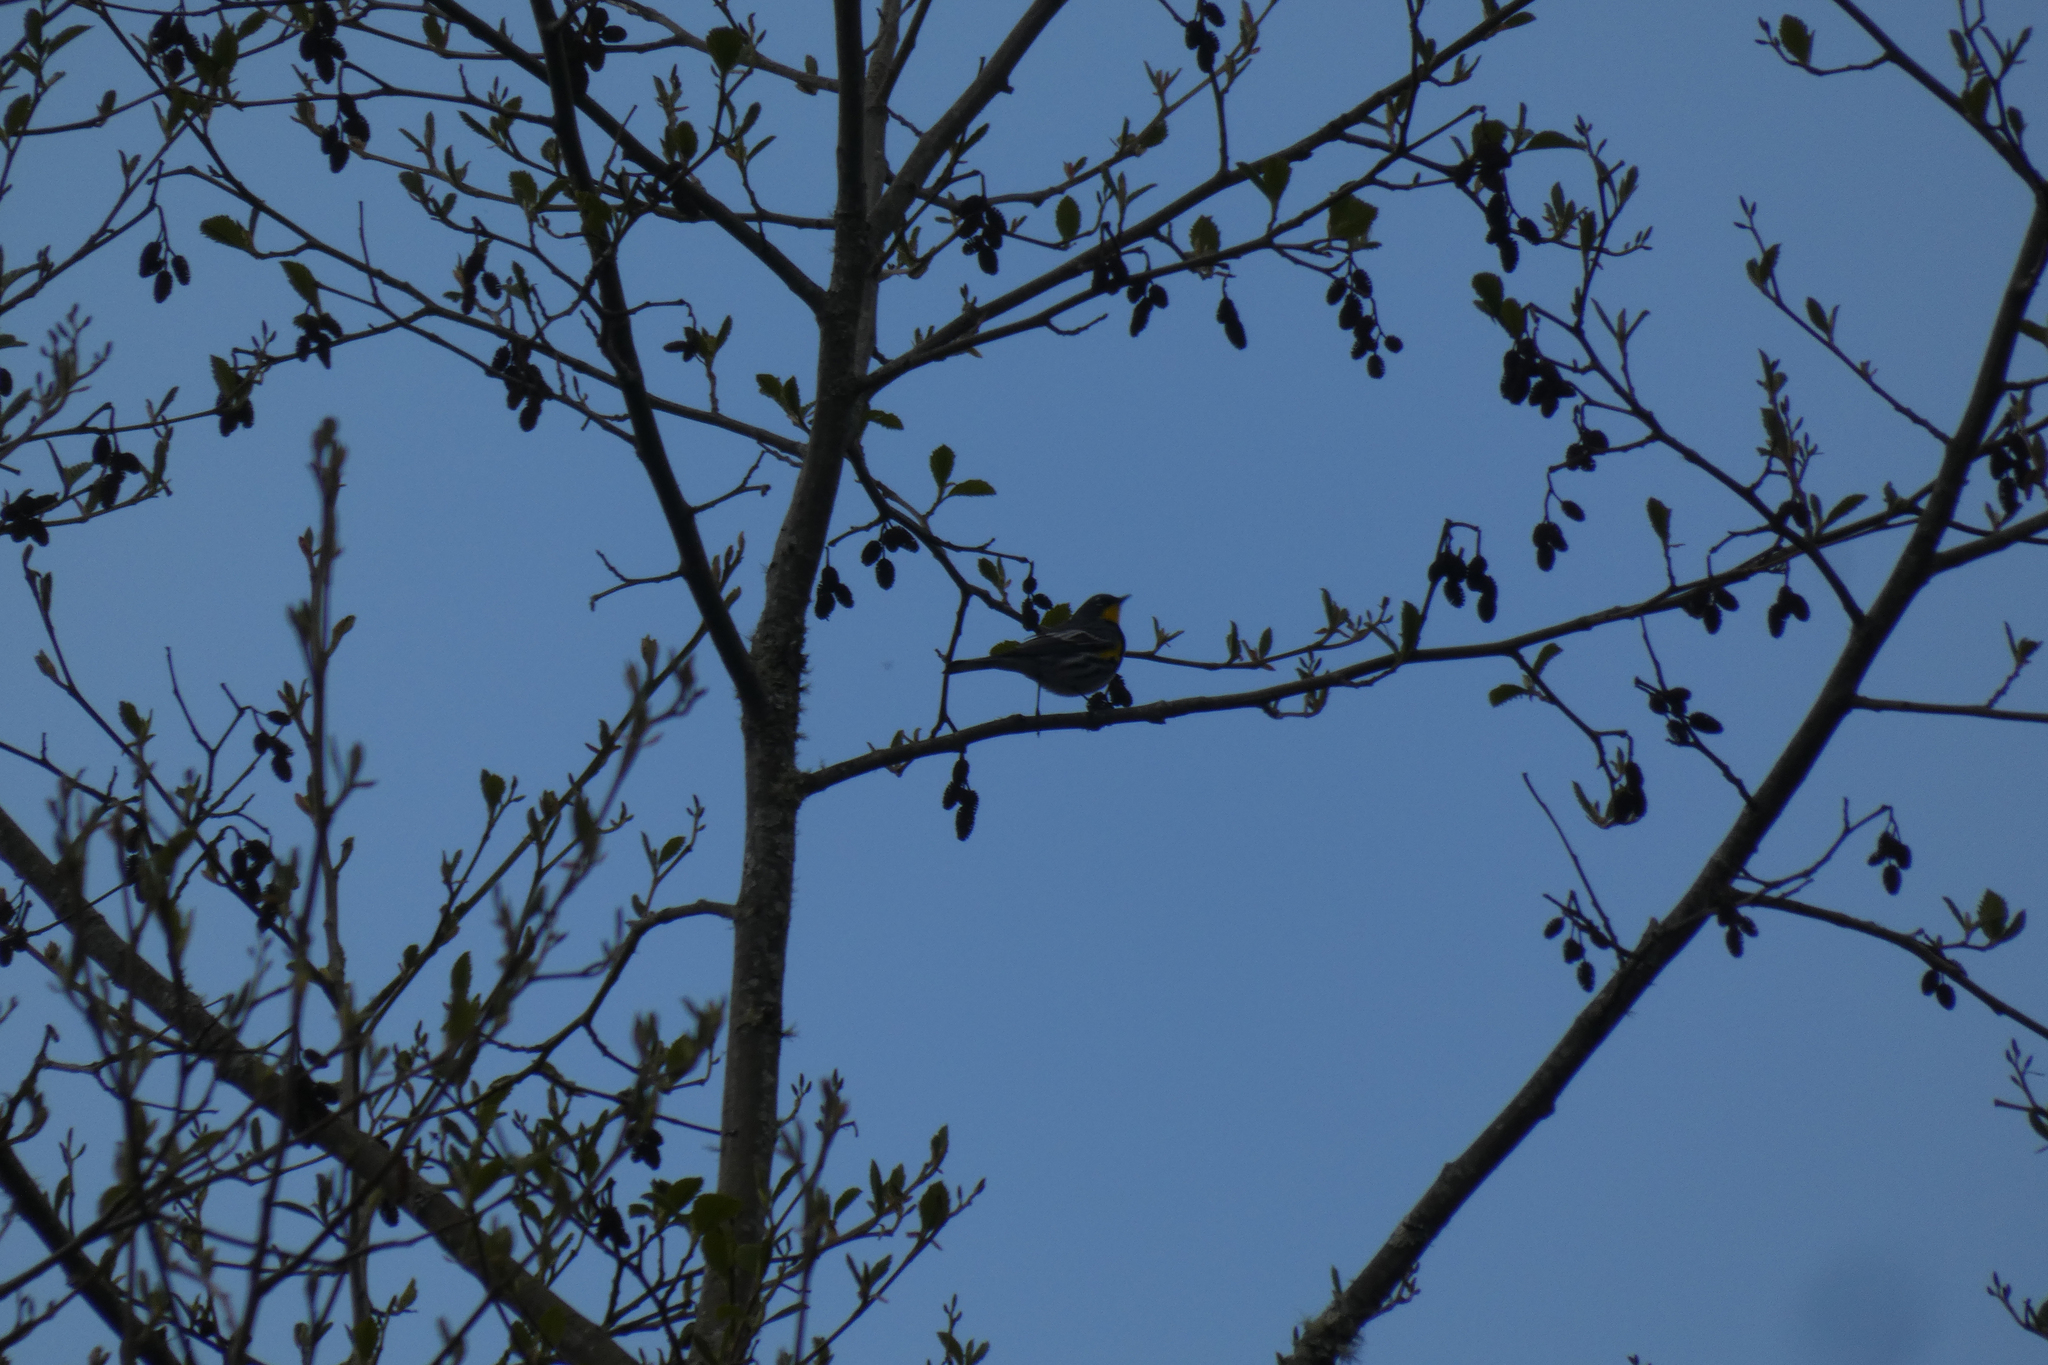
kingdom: Animalia
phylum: Chordata
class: Aves
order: Passeriformes
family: Parulidae
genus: Setophaga
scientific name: Setophaga coronata
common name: Myrtle warbler
